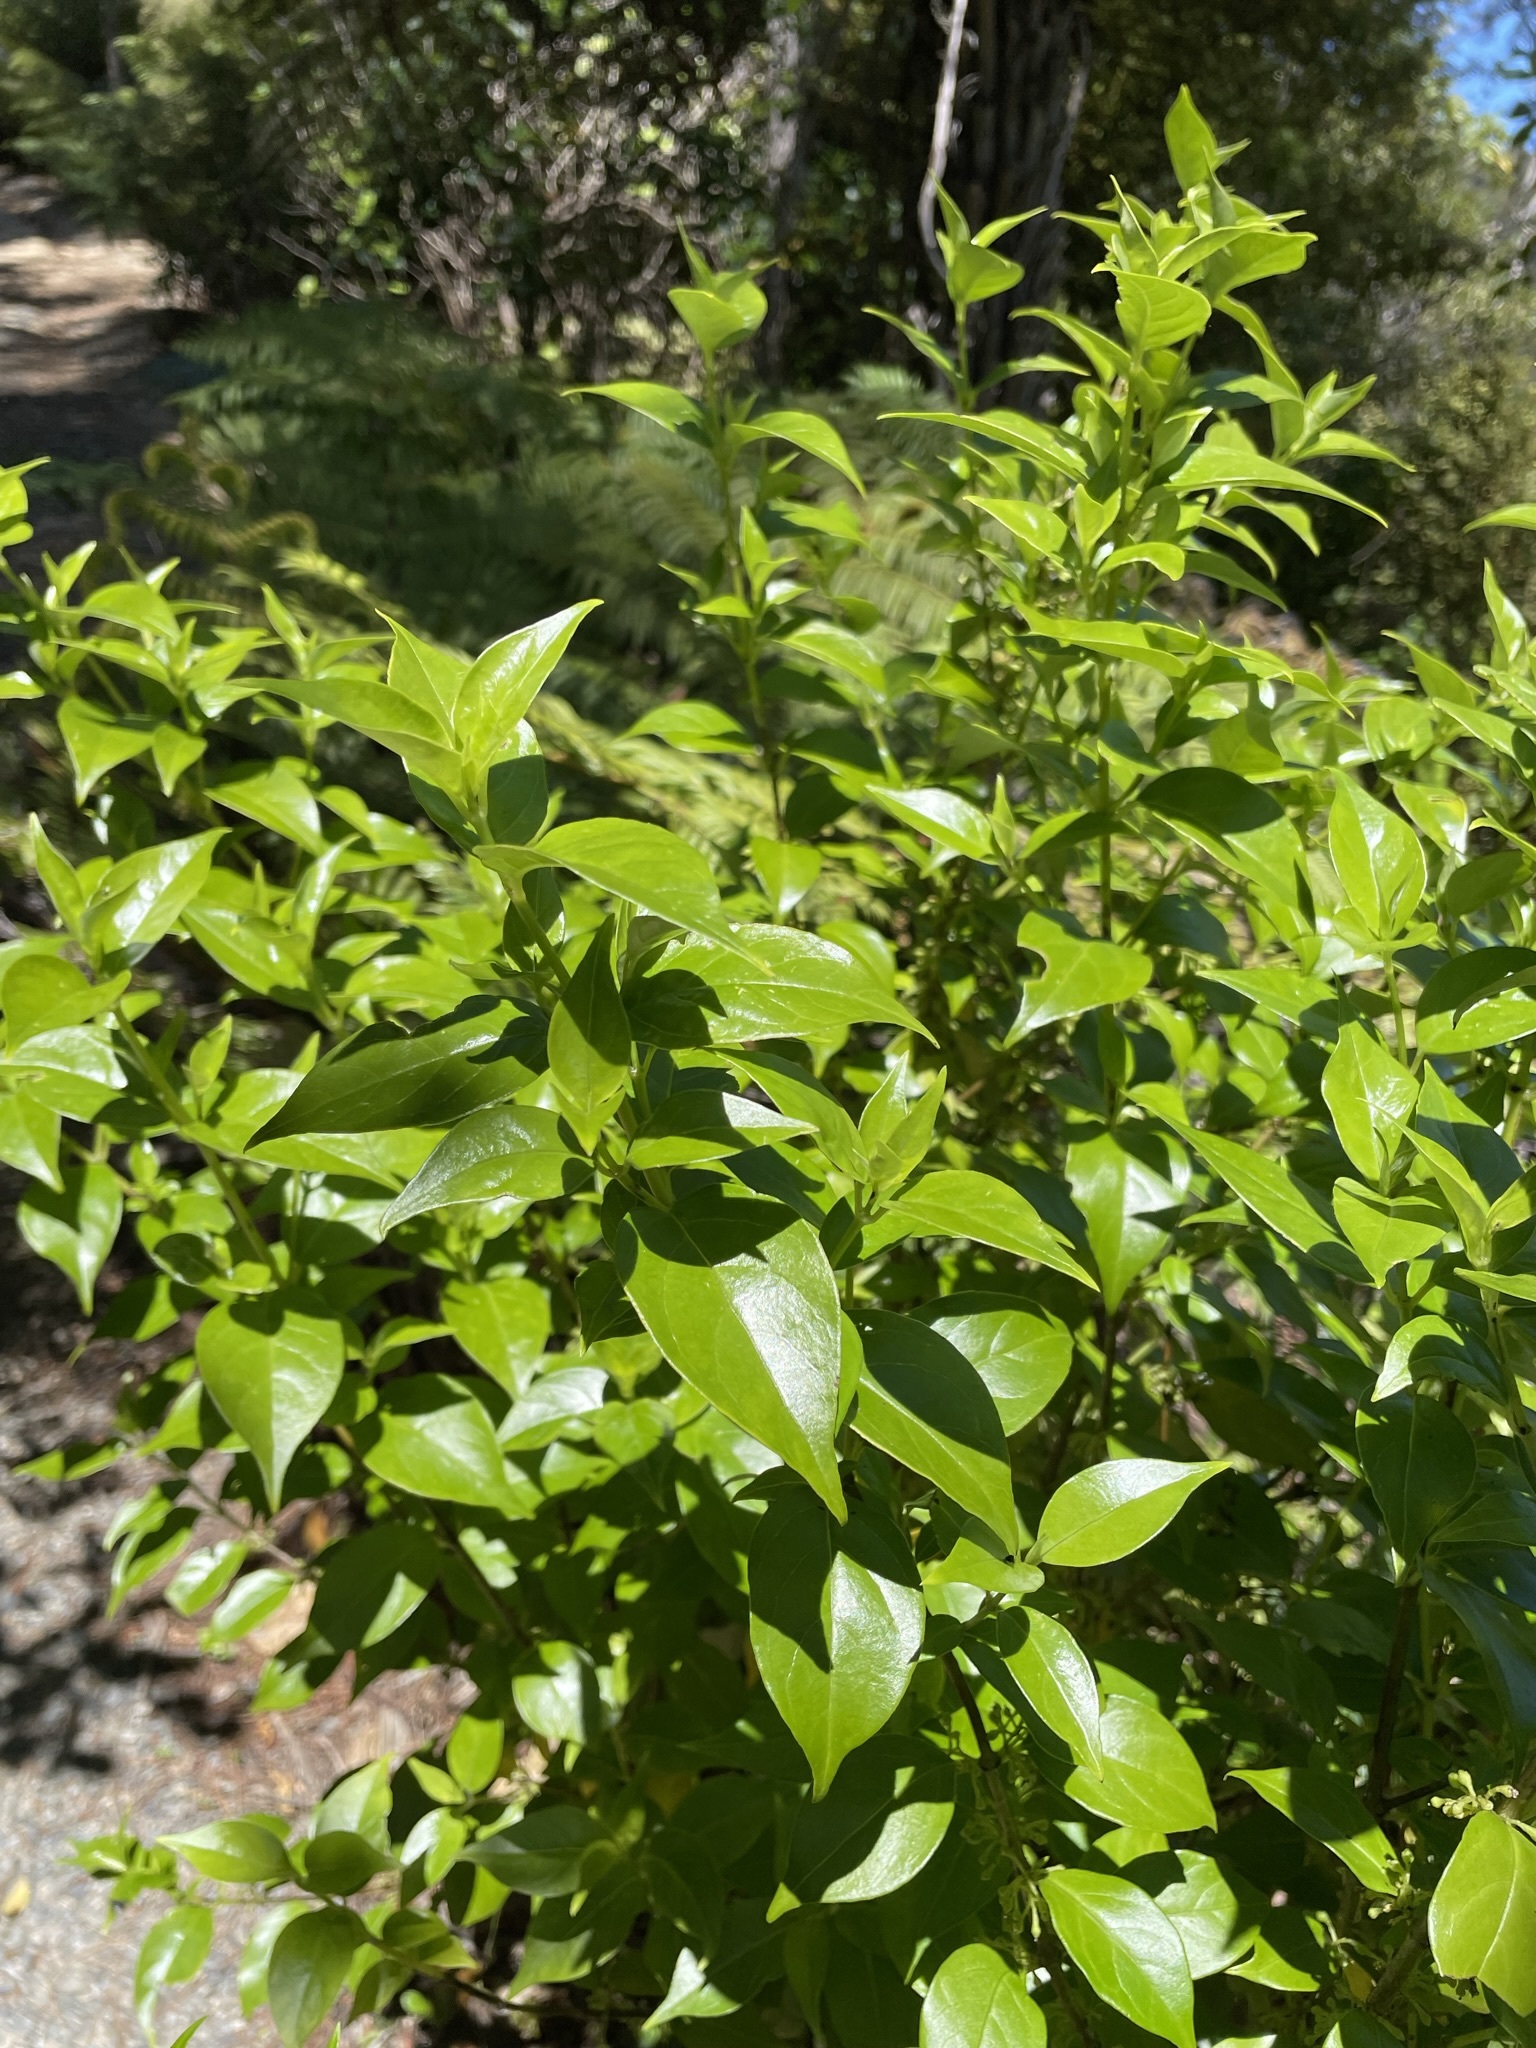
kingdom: Plantae
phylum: Tracheophyta
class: Magnoliopsida
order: Gentianales
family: Loganiaceae
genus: Geniostoma
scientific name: Geniostoma ligustrifolium
